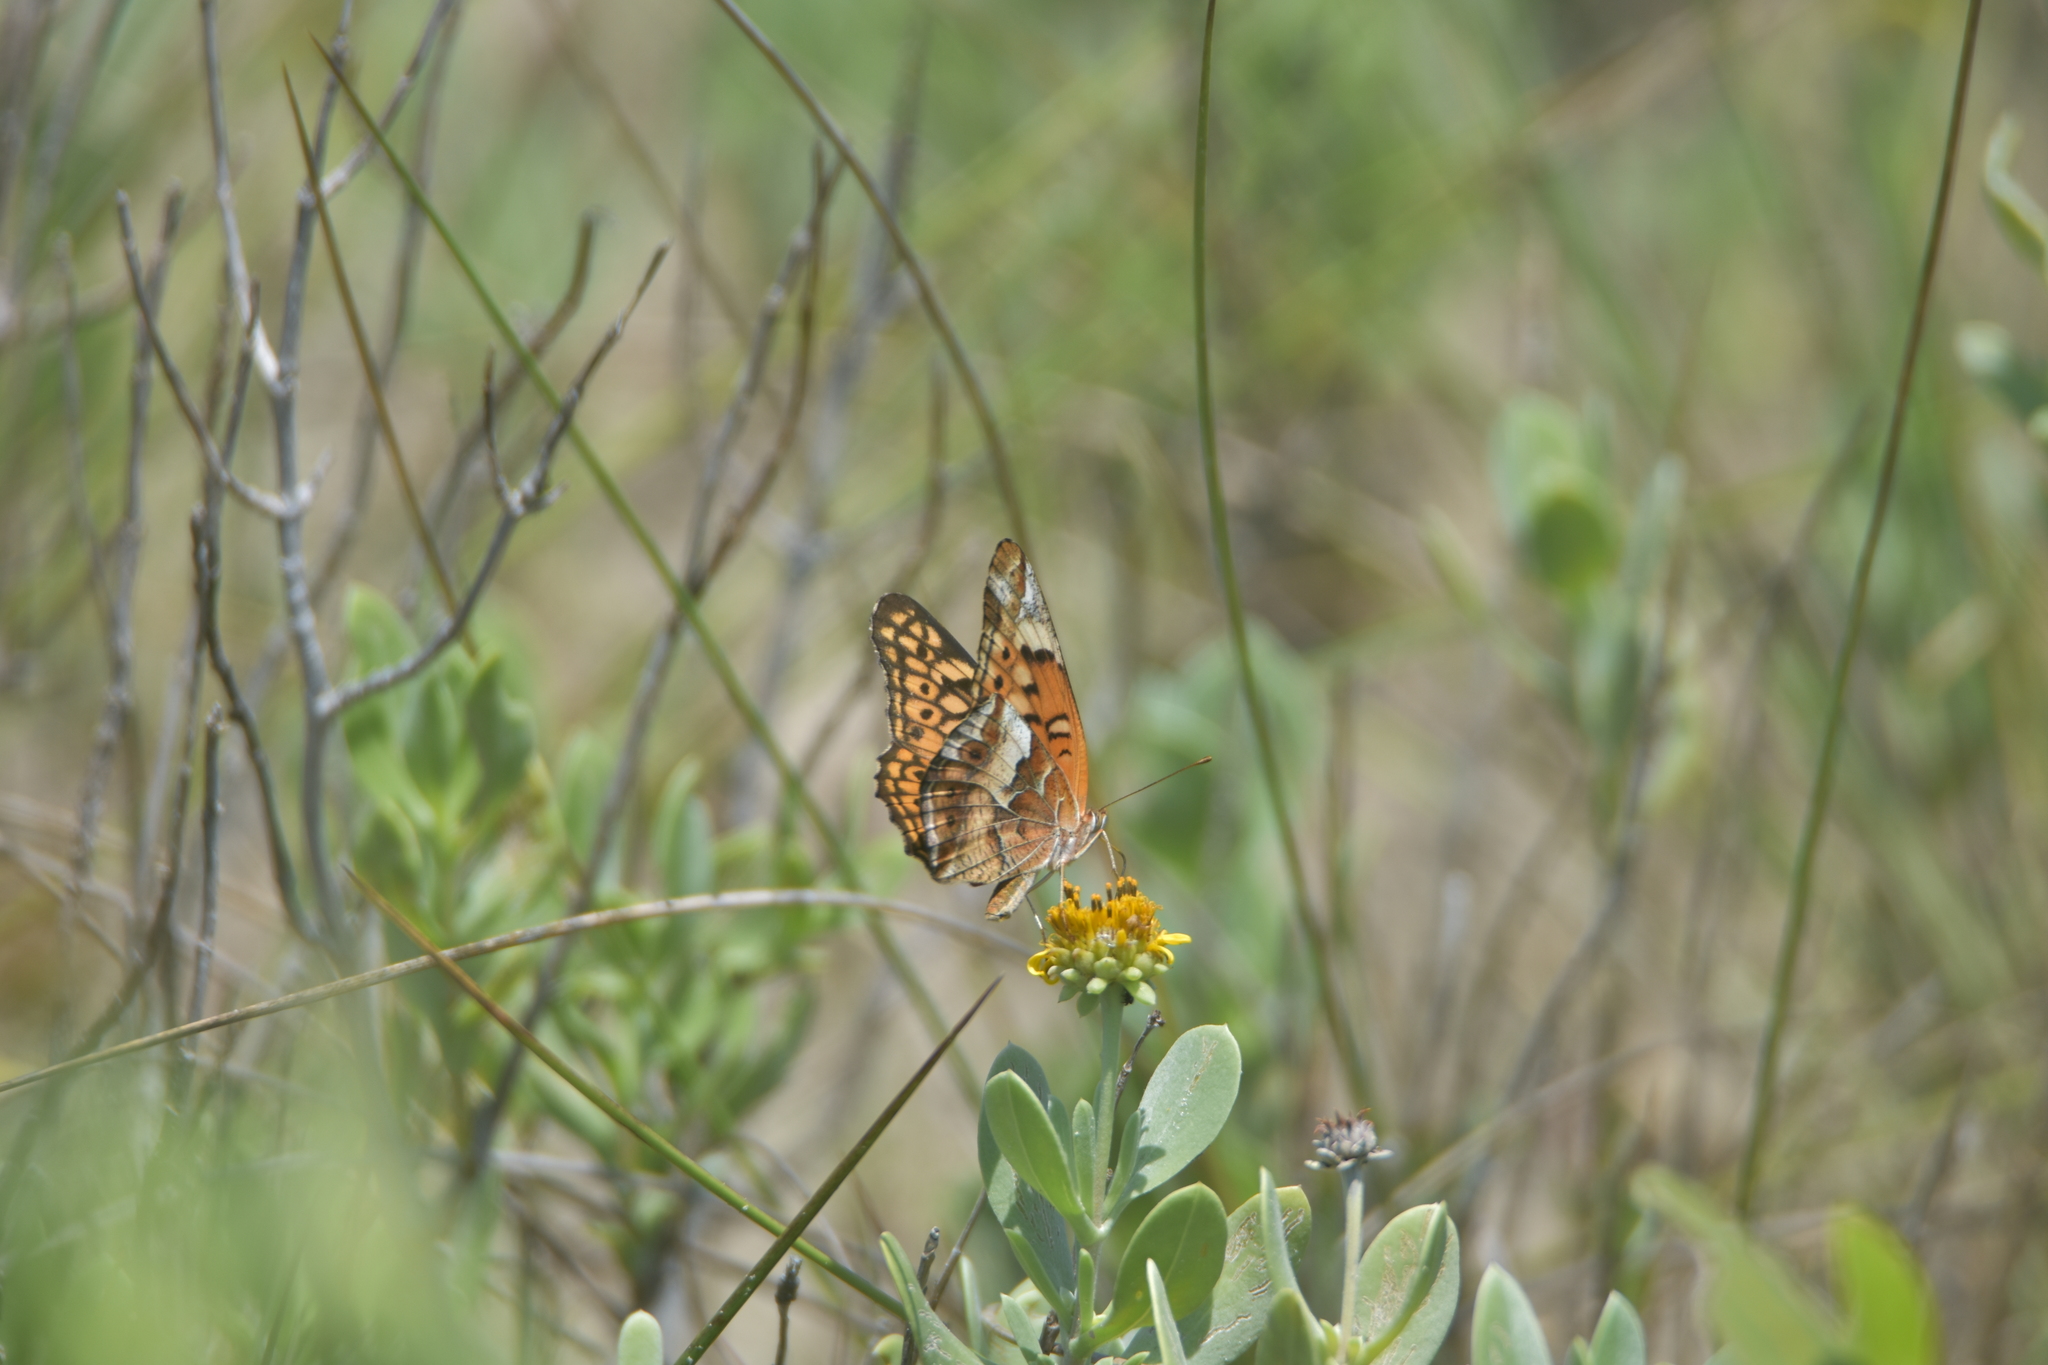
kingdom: Animalia
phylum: Arthropoda
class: Insecta
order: Lepidoptera
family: Nymphalidae
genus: Euptoieta
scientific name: Euptoieta claudia
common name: Variegated fritillary
